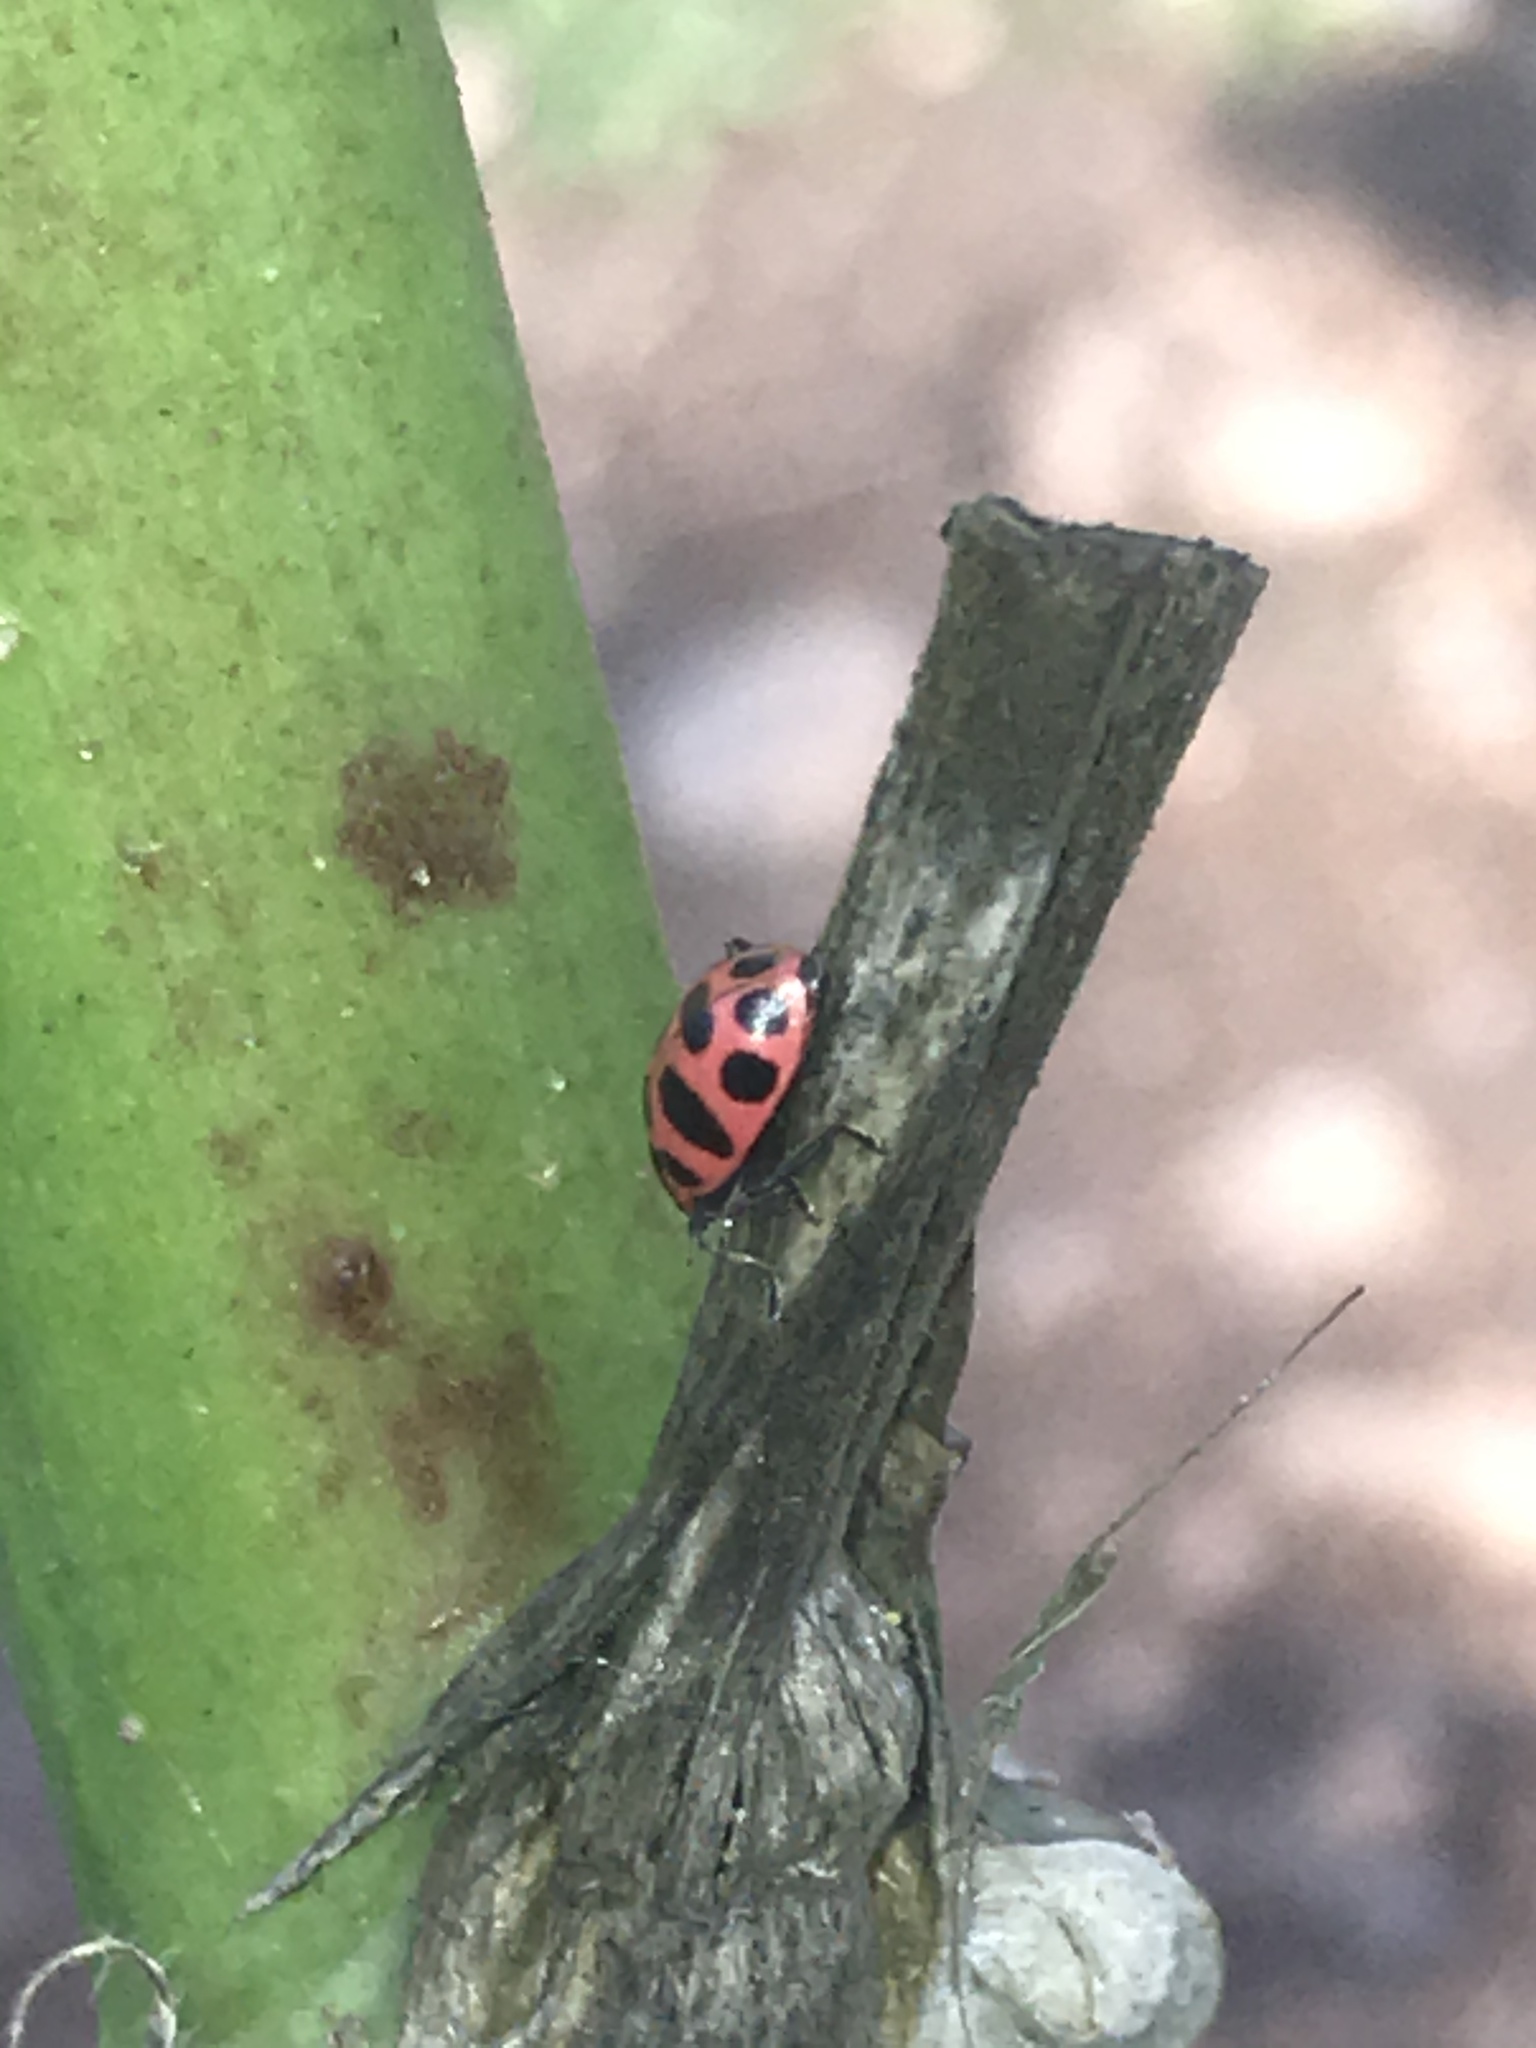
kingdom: Animalia
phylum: Arthropoda
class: Insecta
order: Coleoptera
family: Coccinellidae
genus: Coleomegilla
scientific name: Coleomegilla maculata
